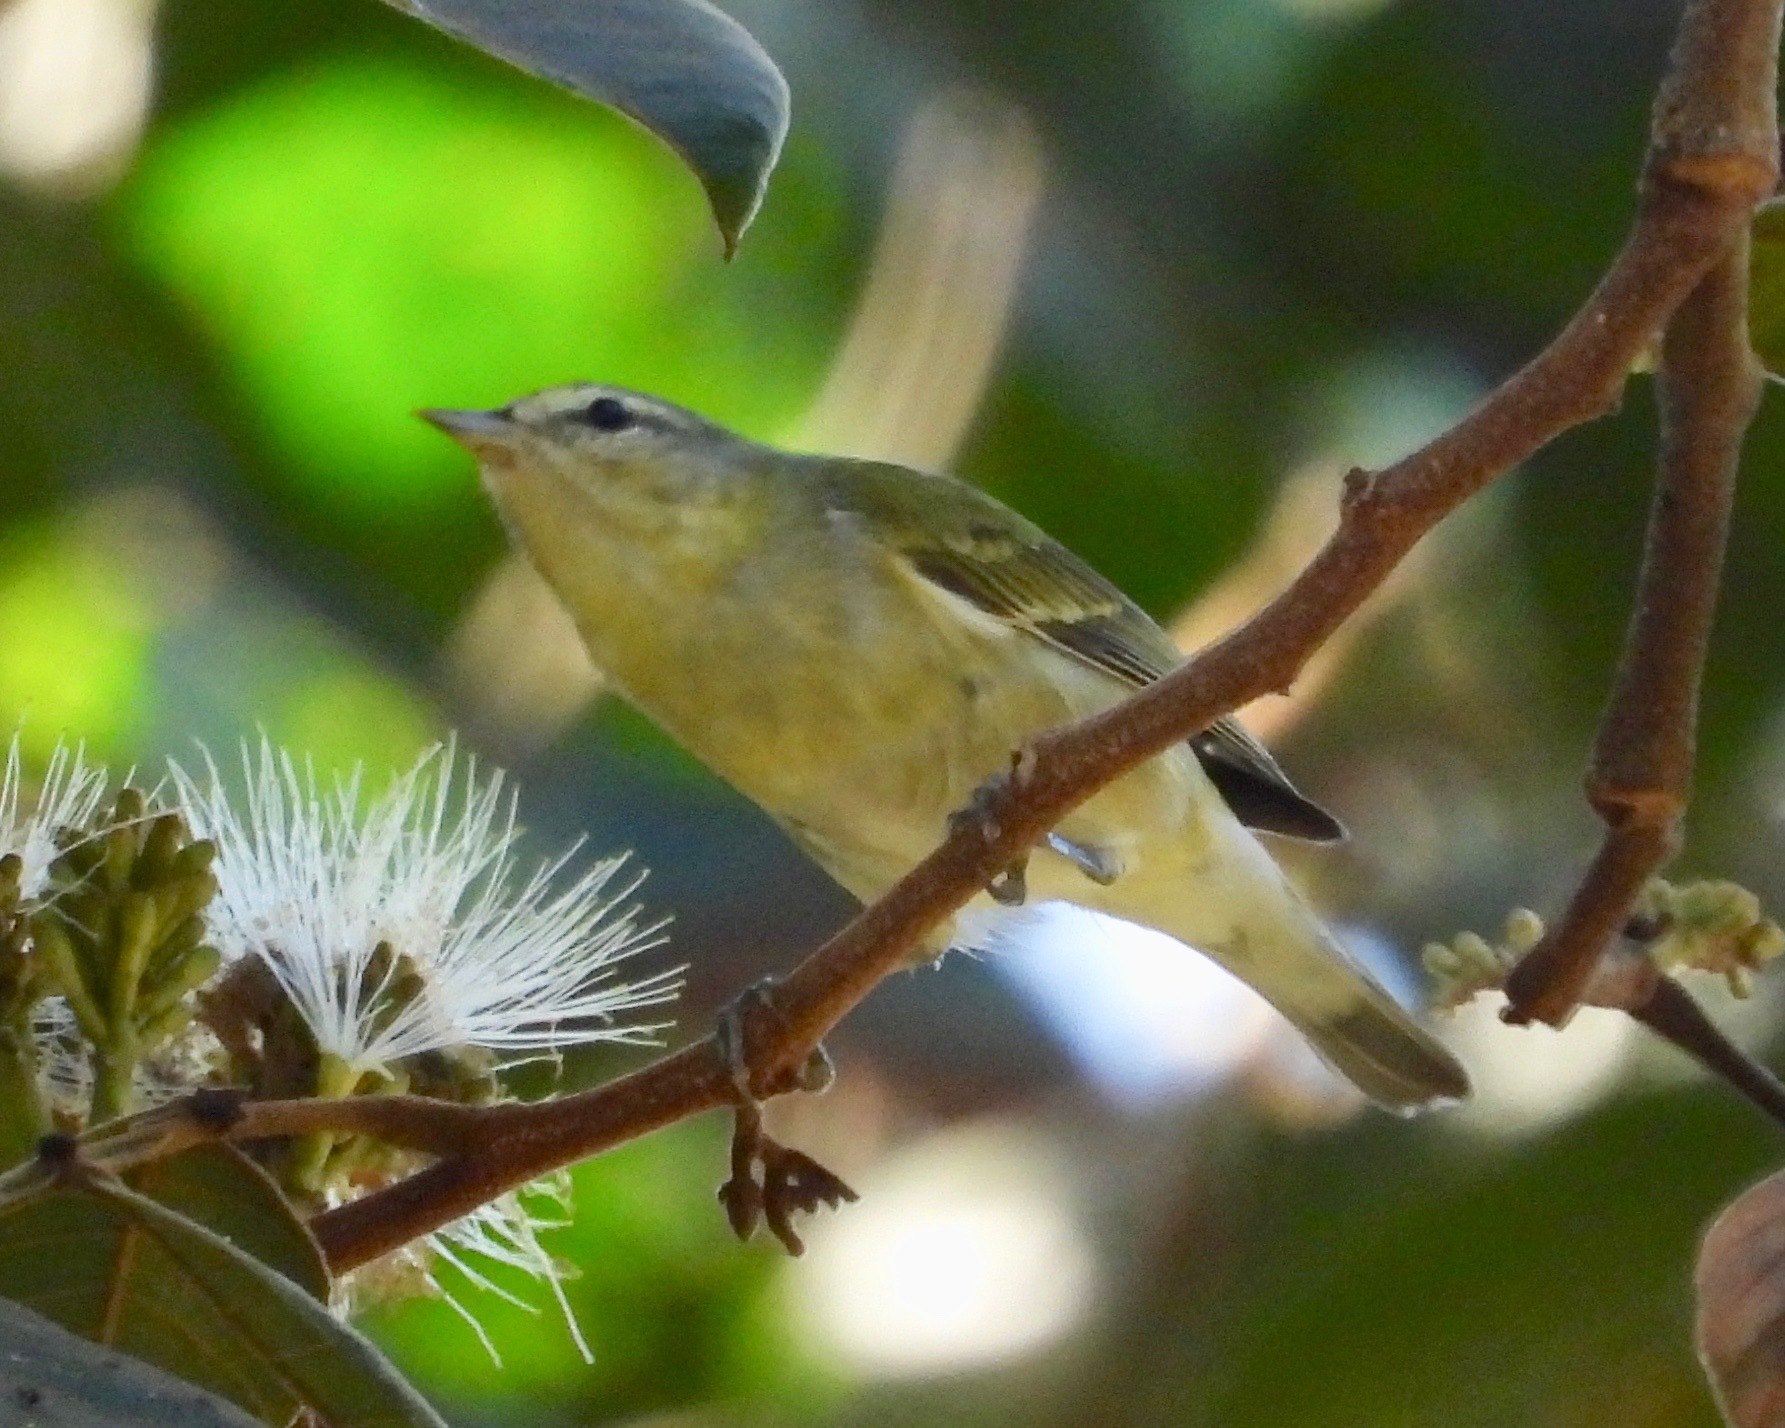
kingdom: Animalia
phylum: Chordata
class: Aves
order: Passeriformes
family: Parulidae
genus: Leiothlypis
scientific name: Leiothlypis peregrina
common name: Tennessee warbler
